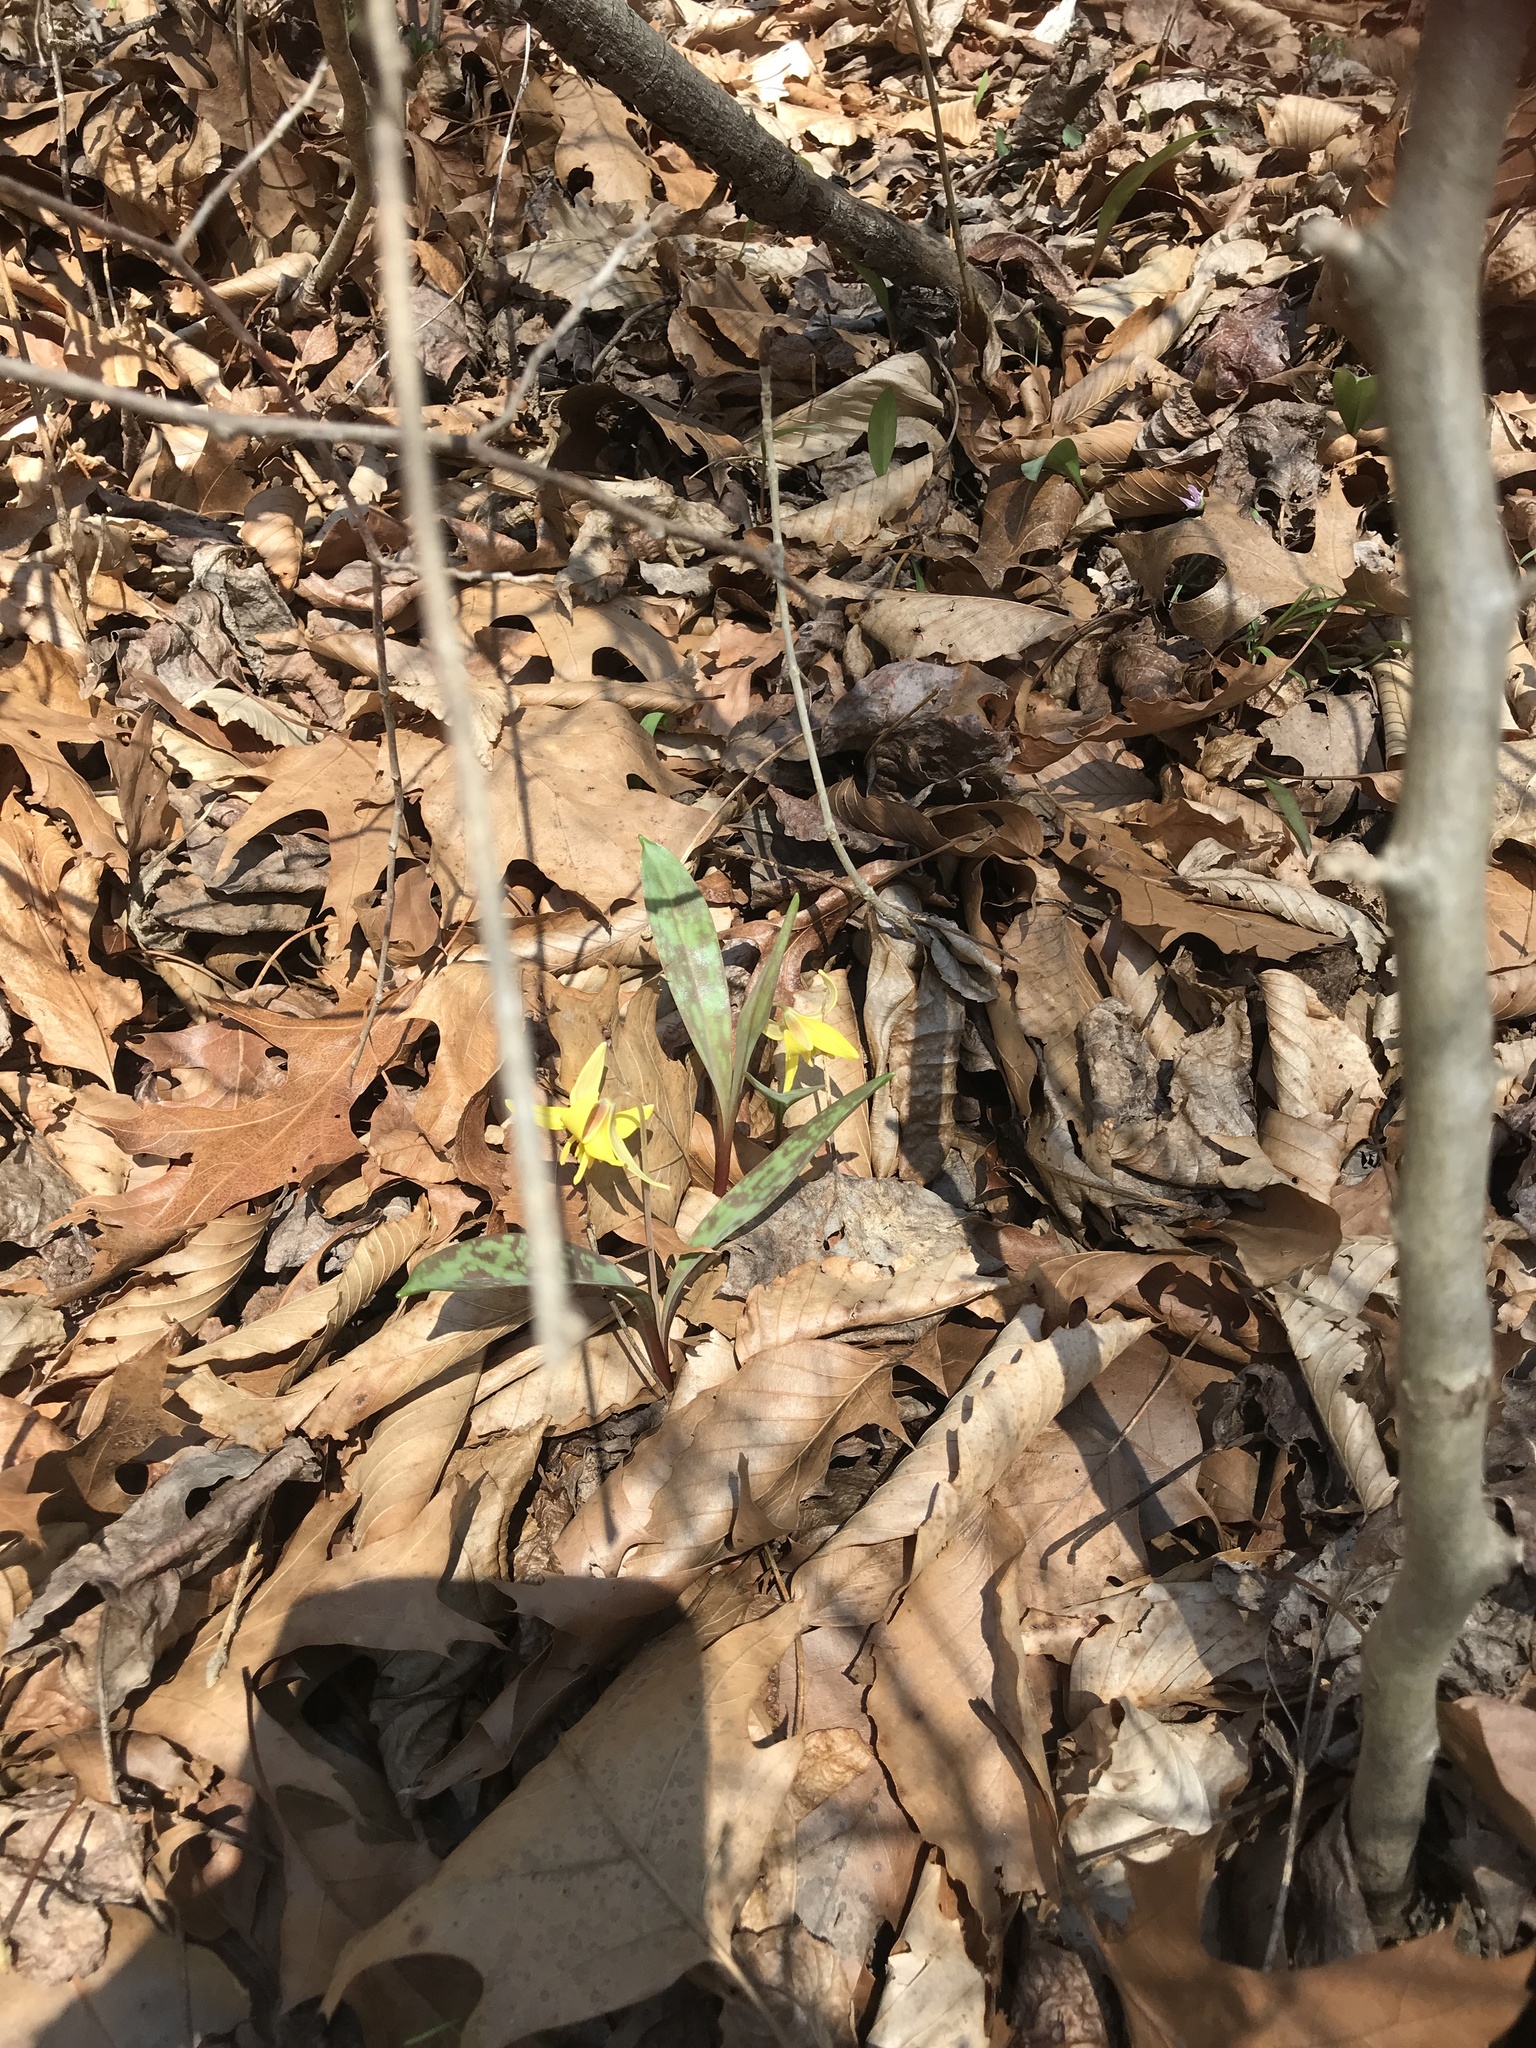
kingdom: Plantae
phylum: Tracheophyta
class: Liliopsida
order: Liliales
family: Liliaceae
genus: Erythronium
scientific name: Erythronium americanum
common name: Yellow adder's-tongue
